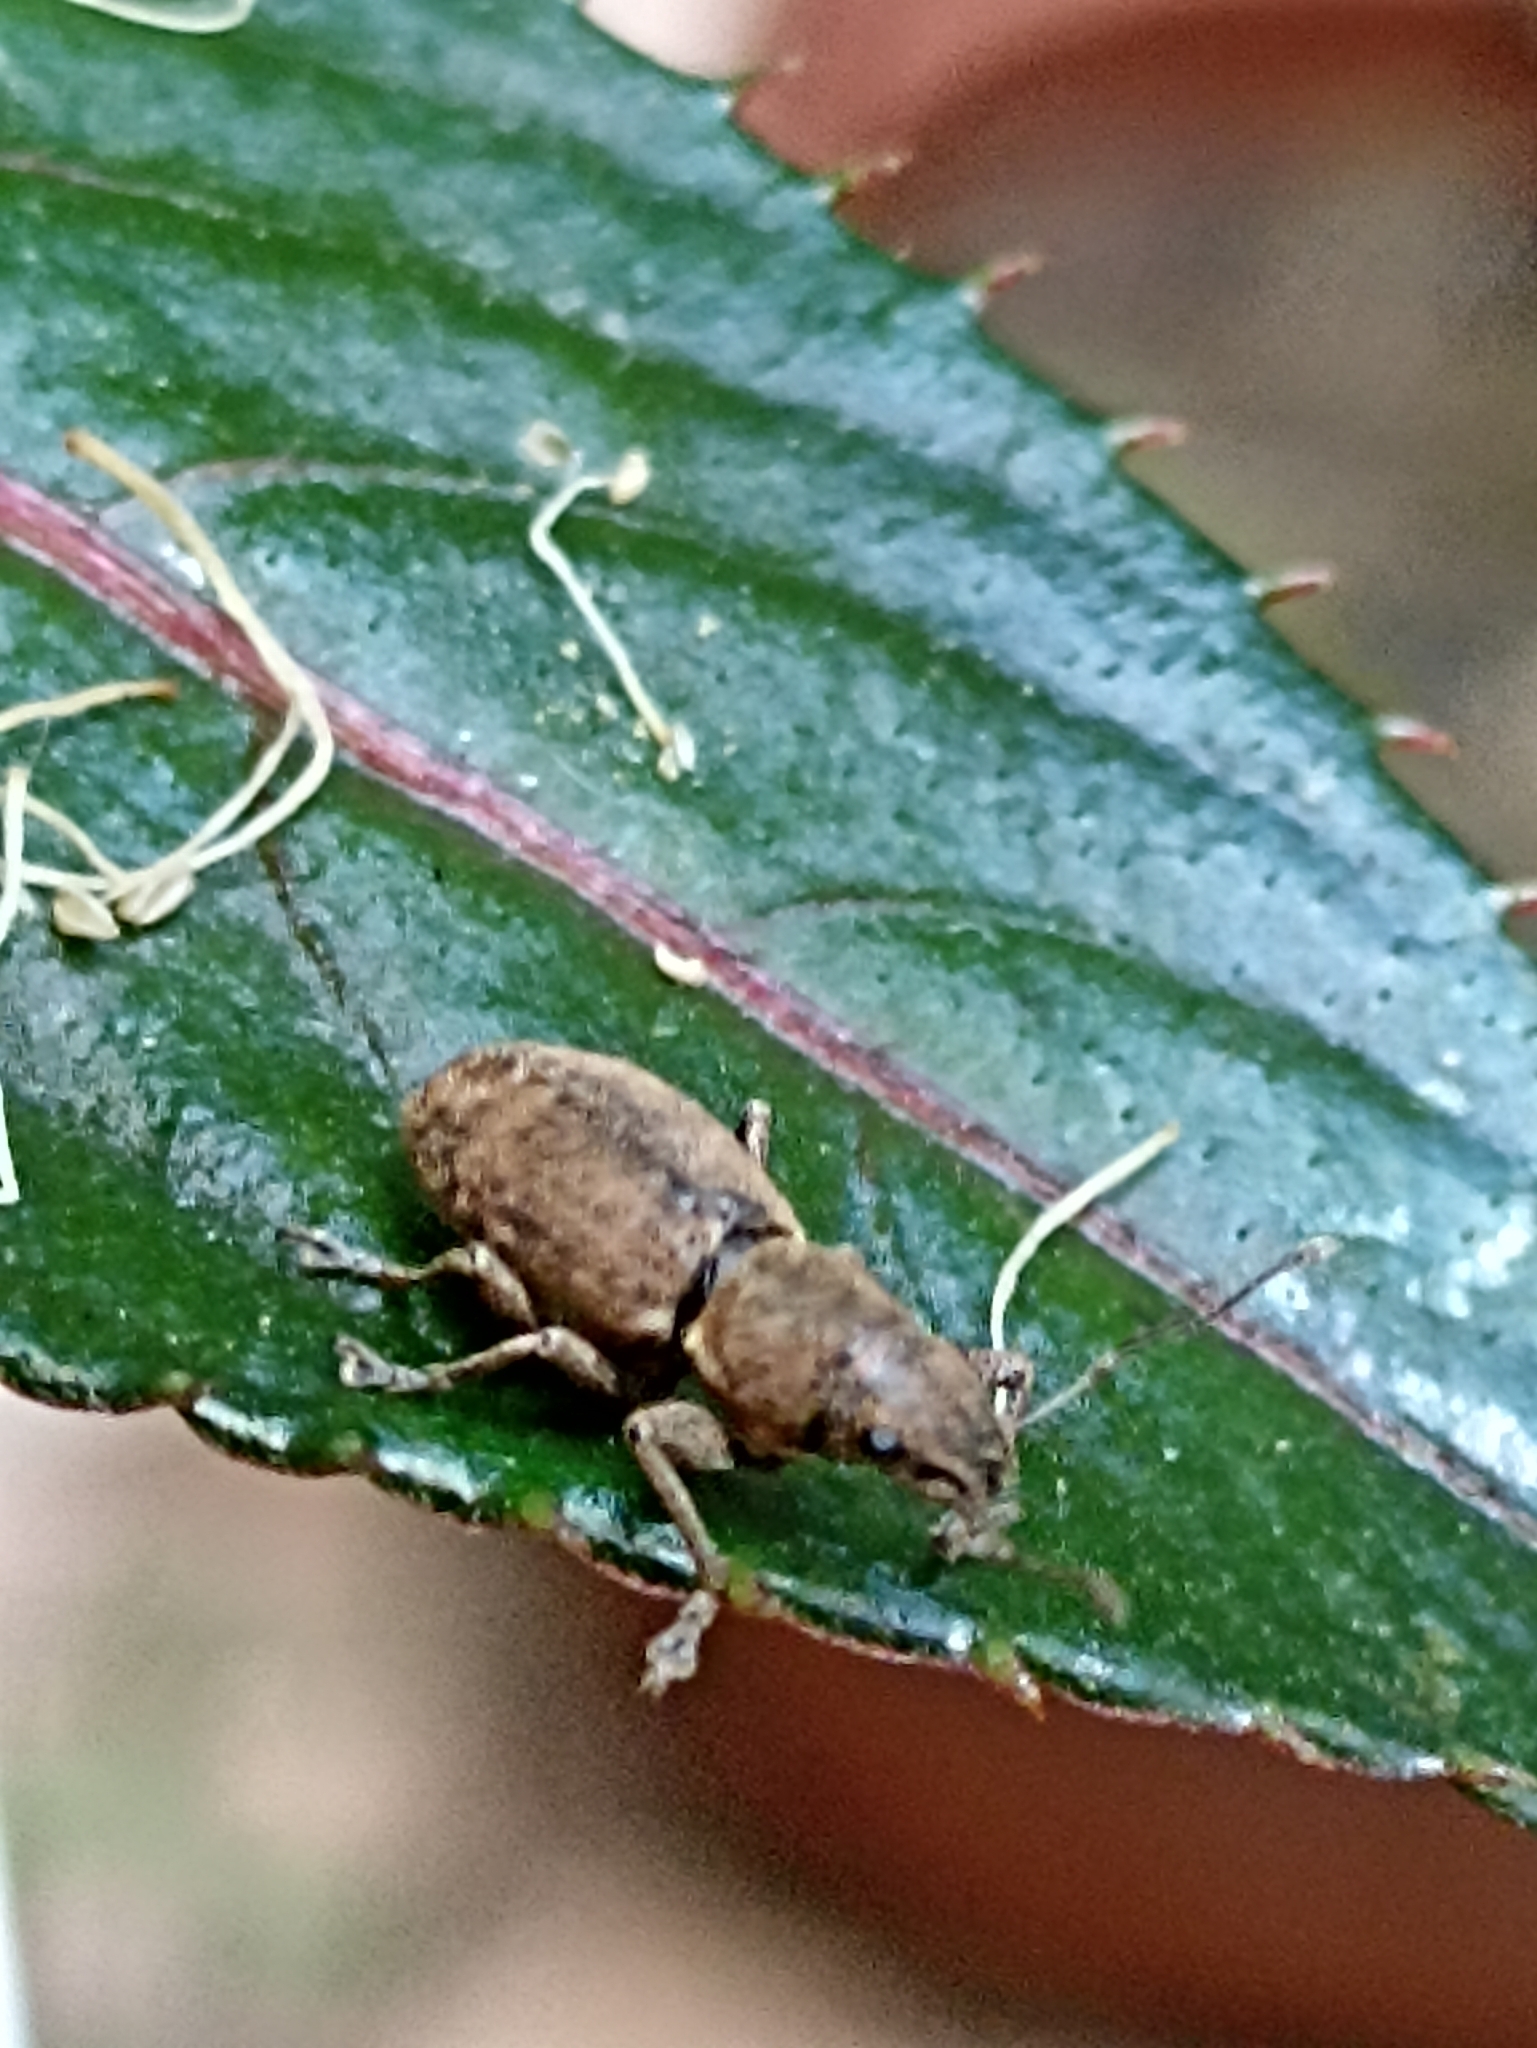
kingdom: Animalia
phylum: Arthropoda
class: Insecta
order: Coleoptera
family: Curculionidae
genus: Naupactus
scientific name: Naupactus cervinus
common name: Fuller rose beetle
